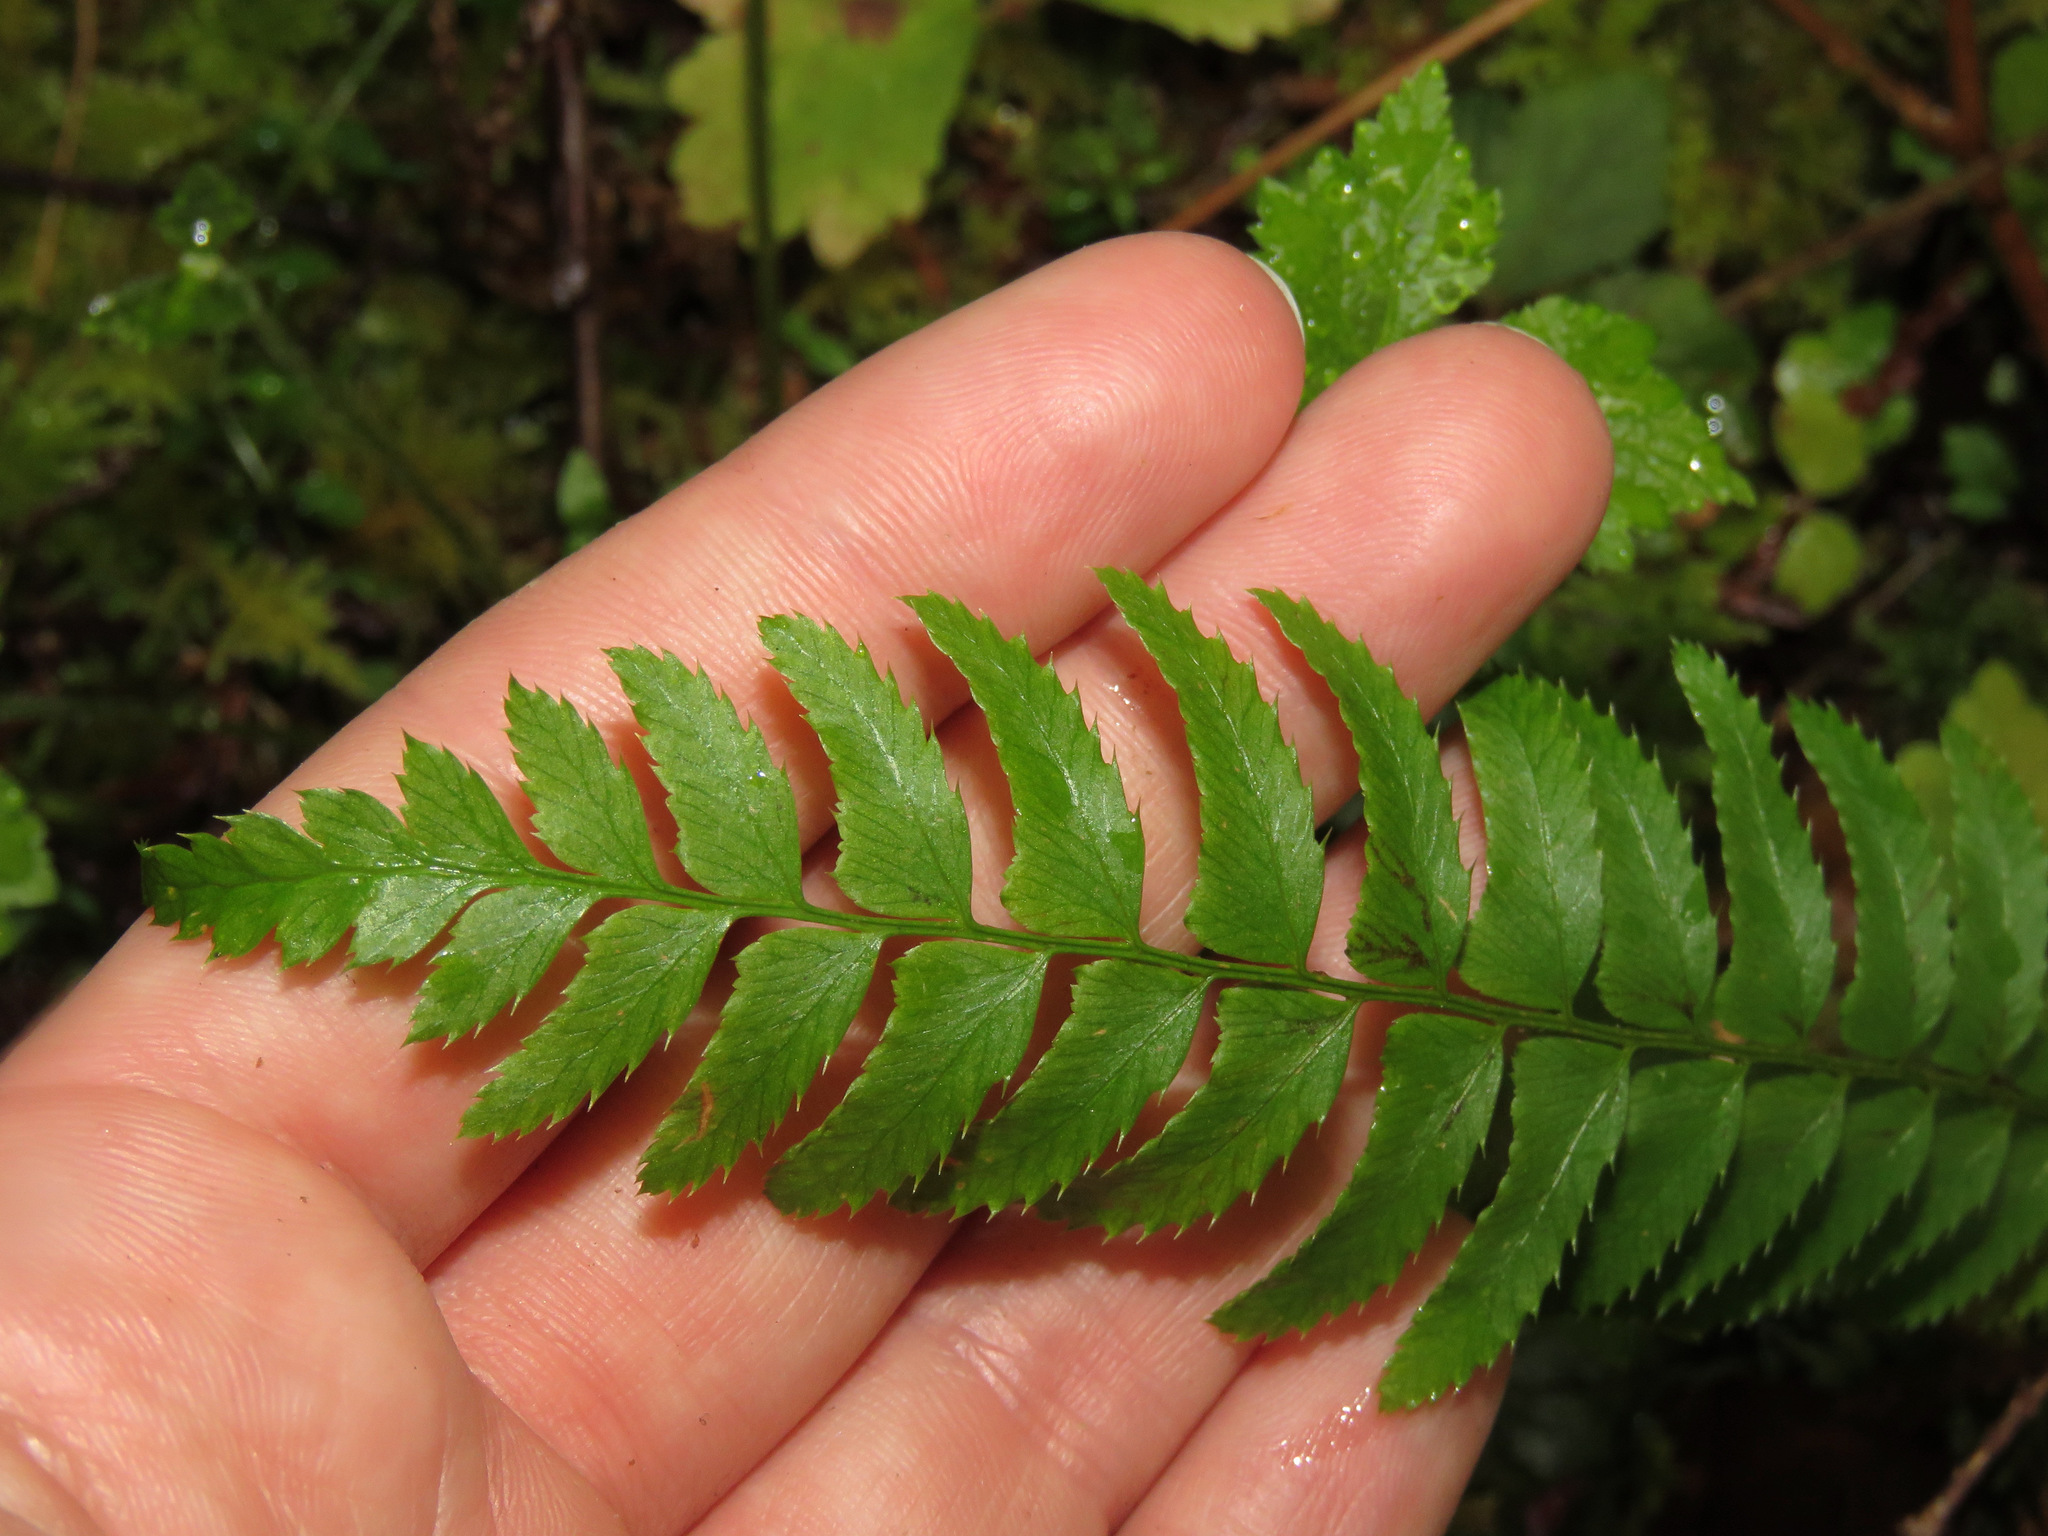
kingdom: Plantae
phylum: Tracheophyta
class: Polypodiopsida
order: Polypodiales
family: Dryopteridaceae
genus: Polystichum
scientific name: Polystichum munitum
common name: Western sword-fern
